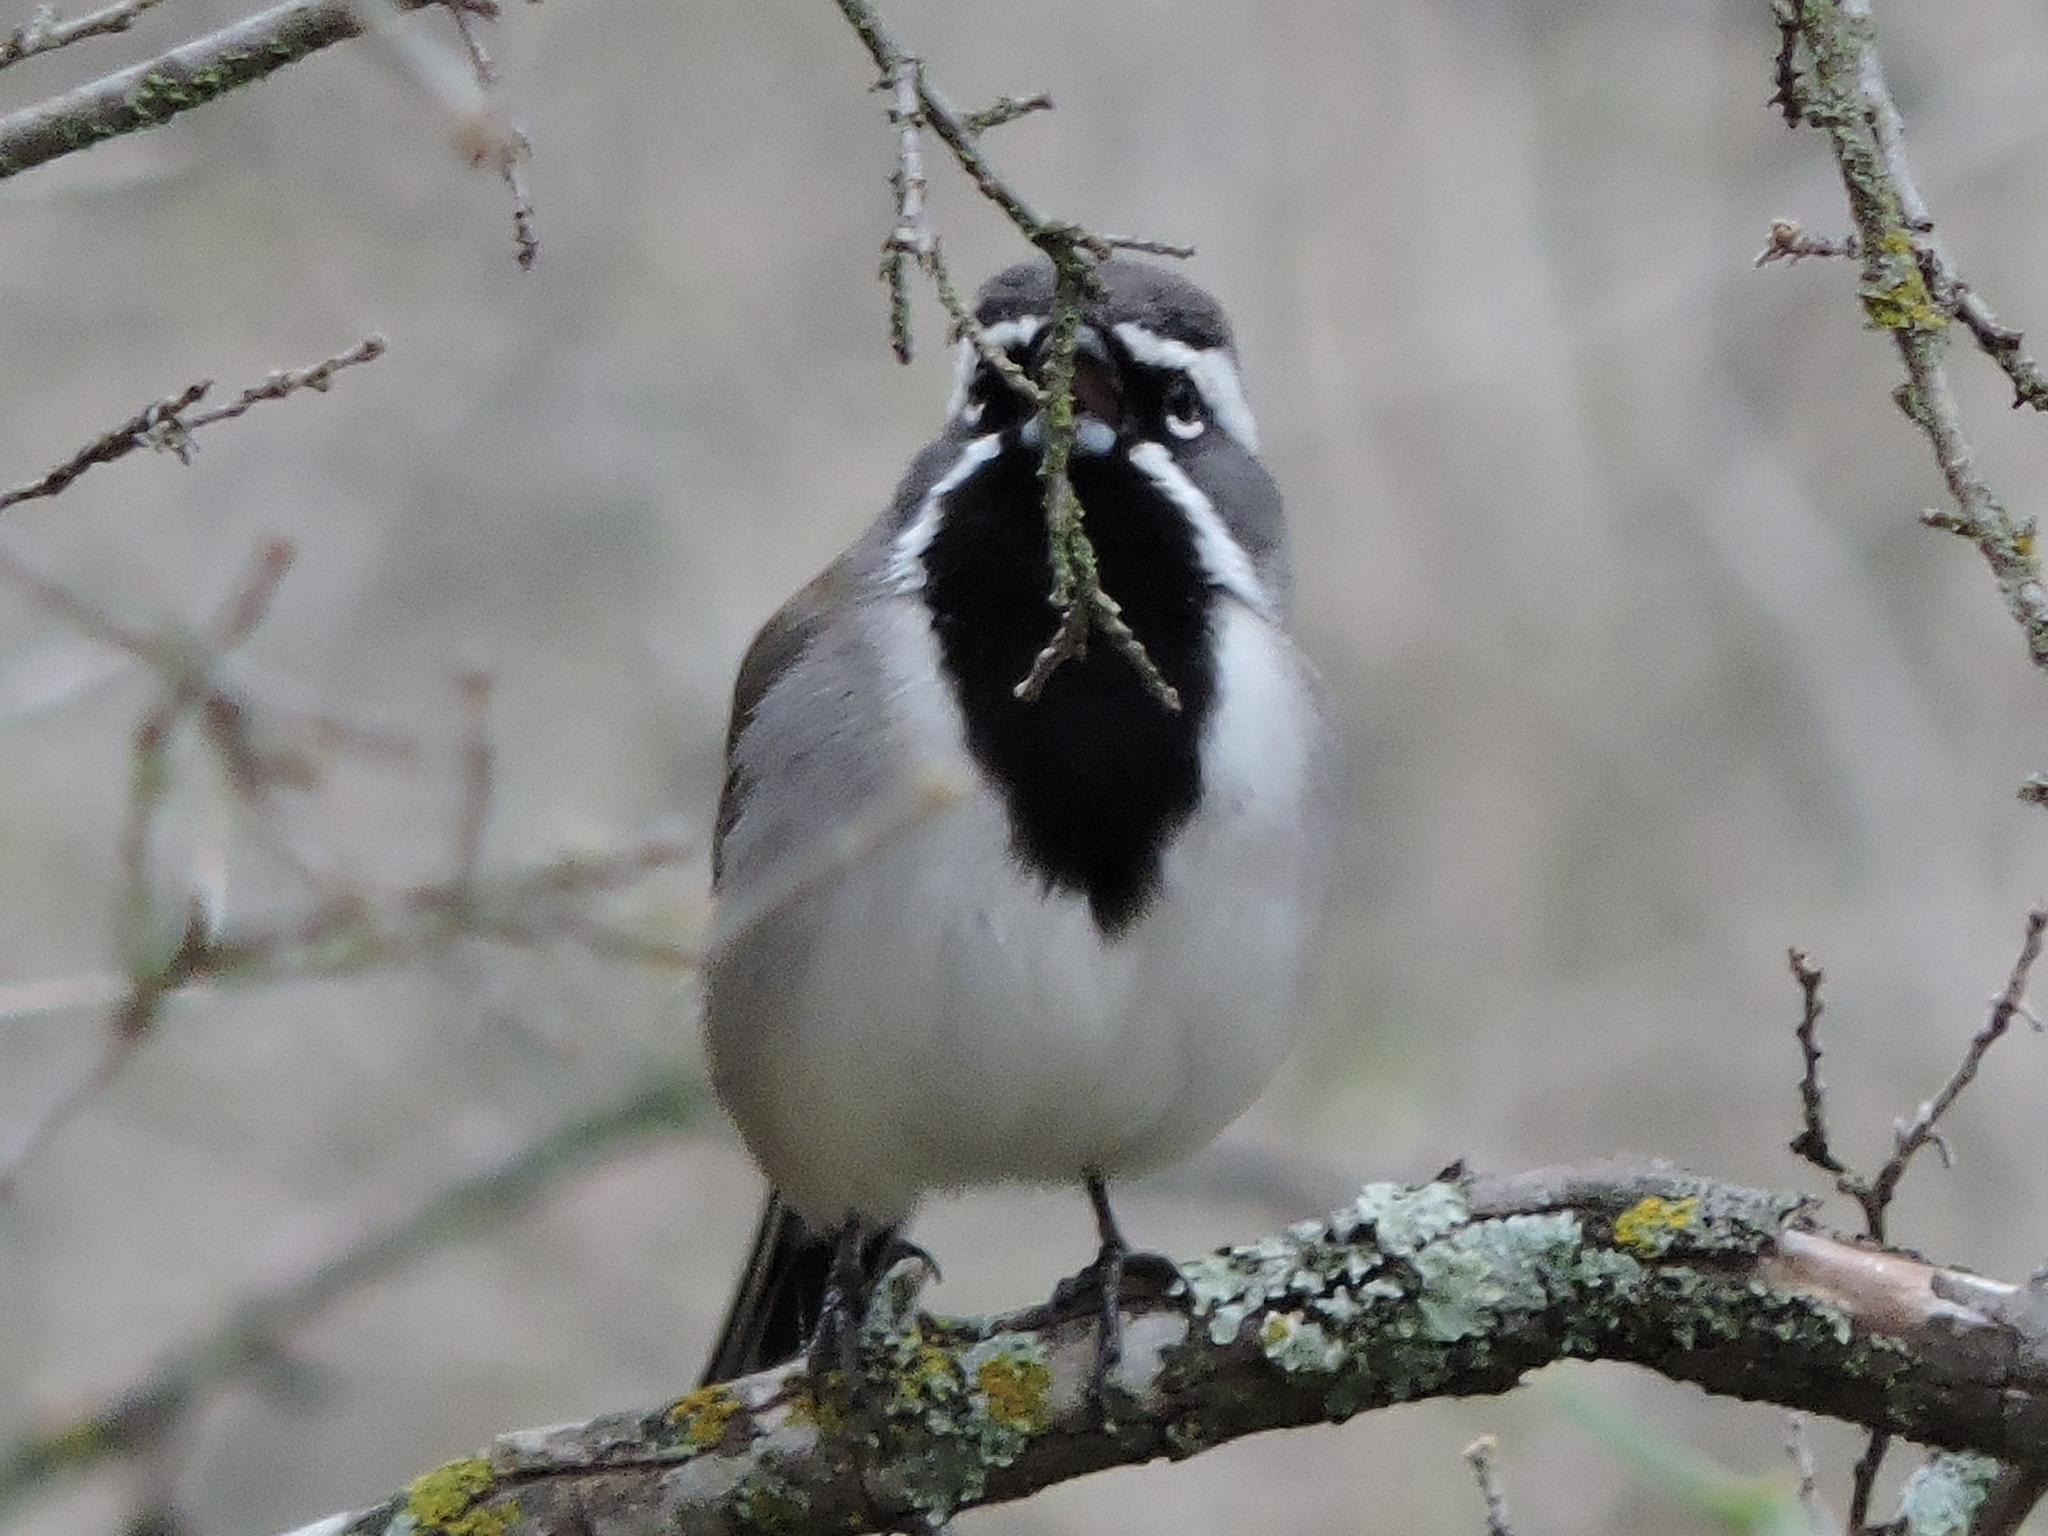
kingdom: Animalia
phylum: Chordata
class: Aves
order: Passeriformes
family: Passerellidae
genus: Amphispiza
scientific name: Amphispiza bilineata
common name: Black-throated sparrow
